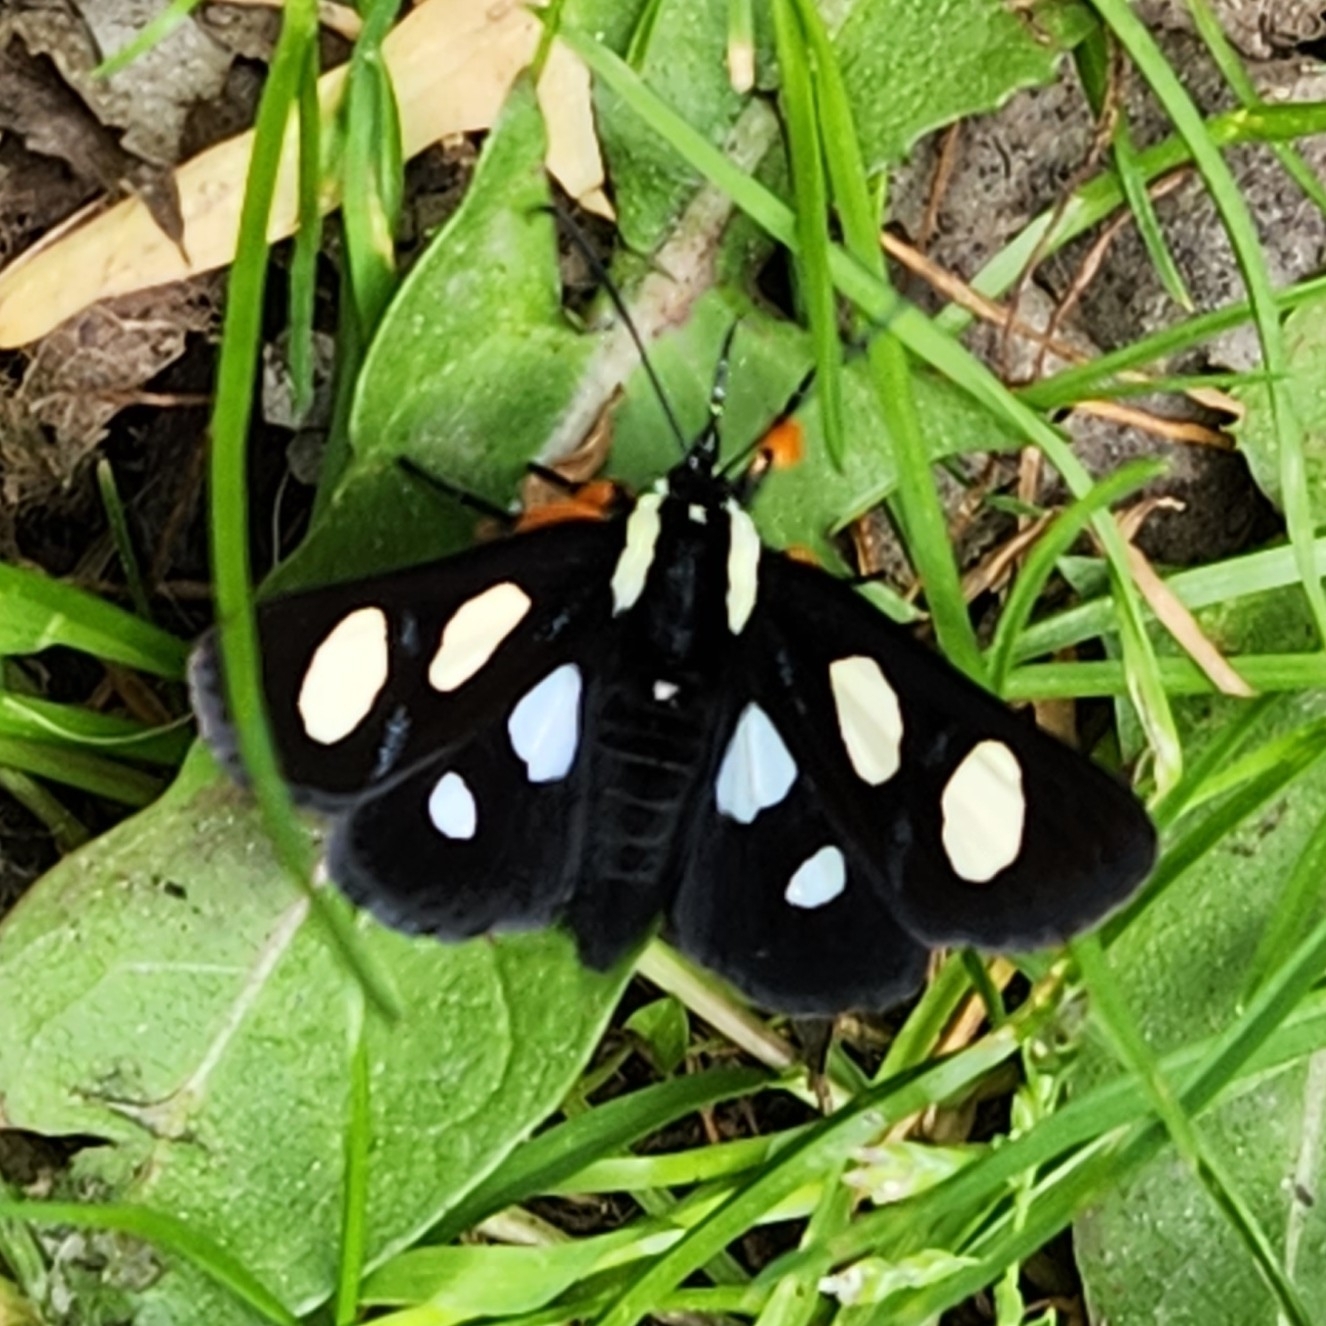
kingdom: Animalia
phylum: Arthropoda
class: Insecta
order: Lepidoptera
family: Noctuidae
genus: Alypia
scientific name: Alypia octomaculata
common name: Eight-spotted forester
